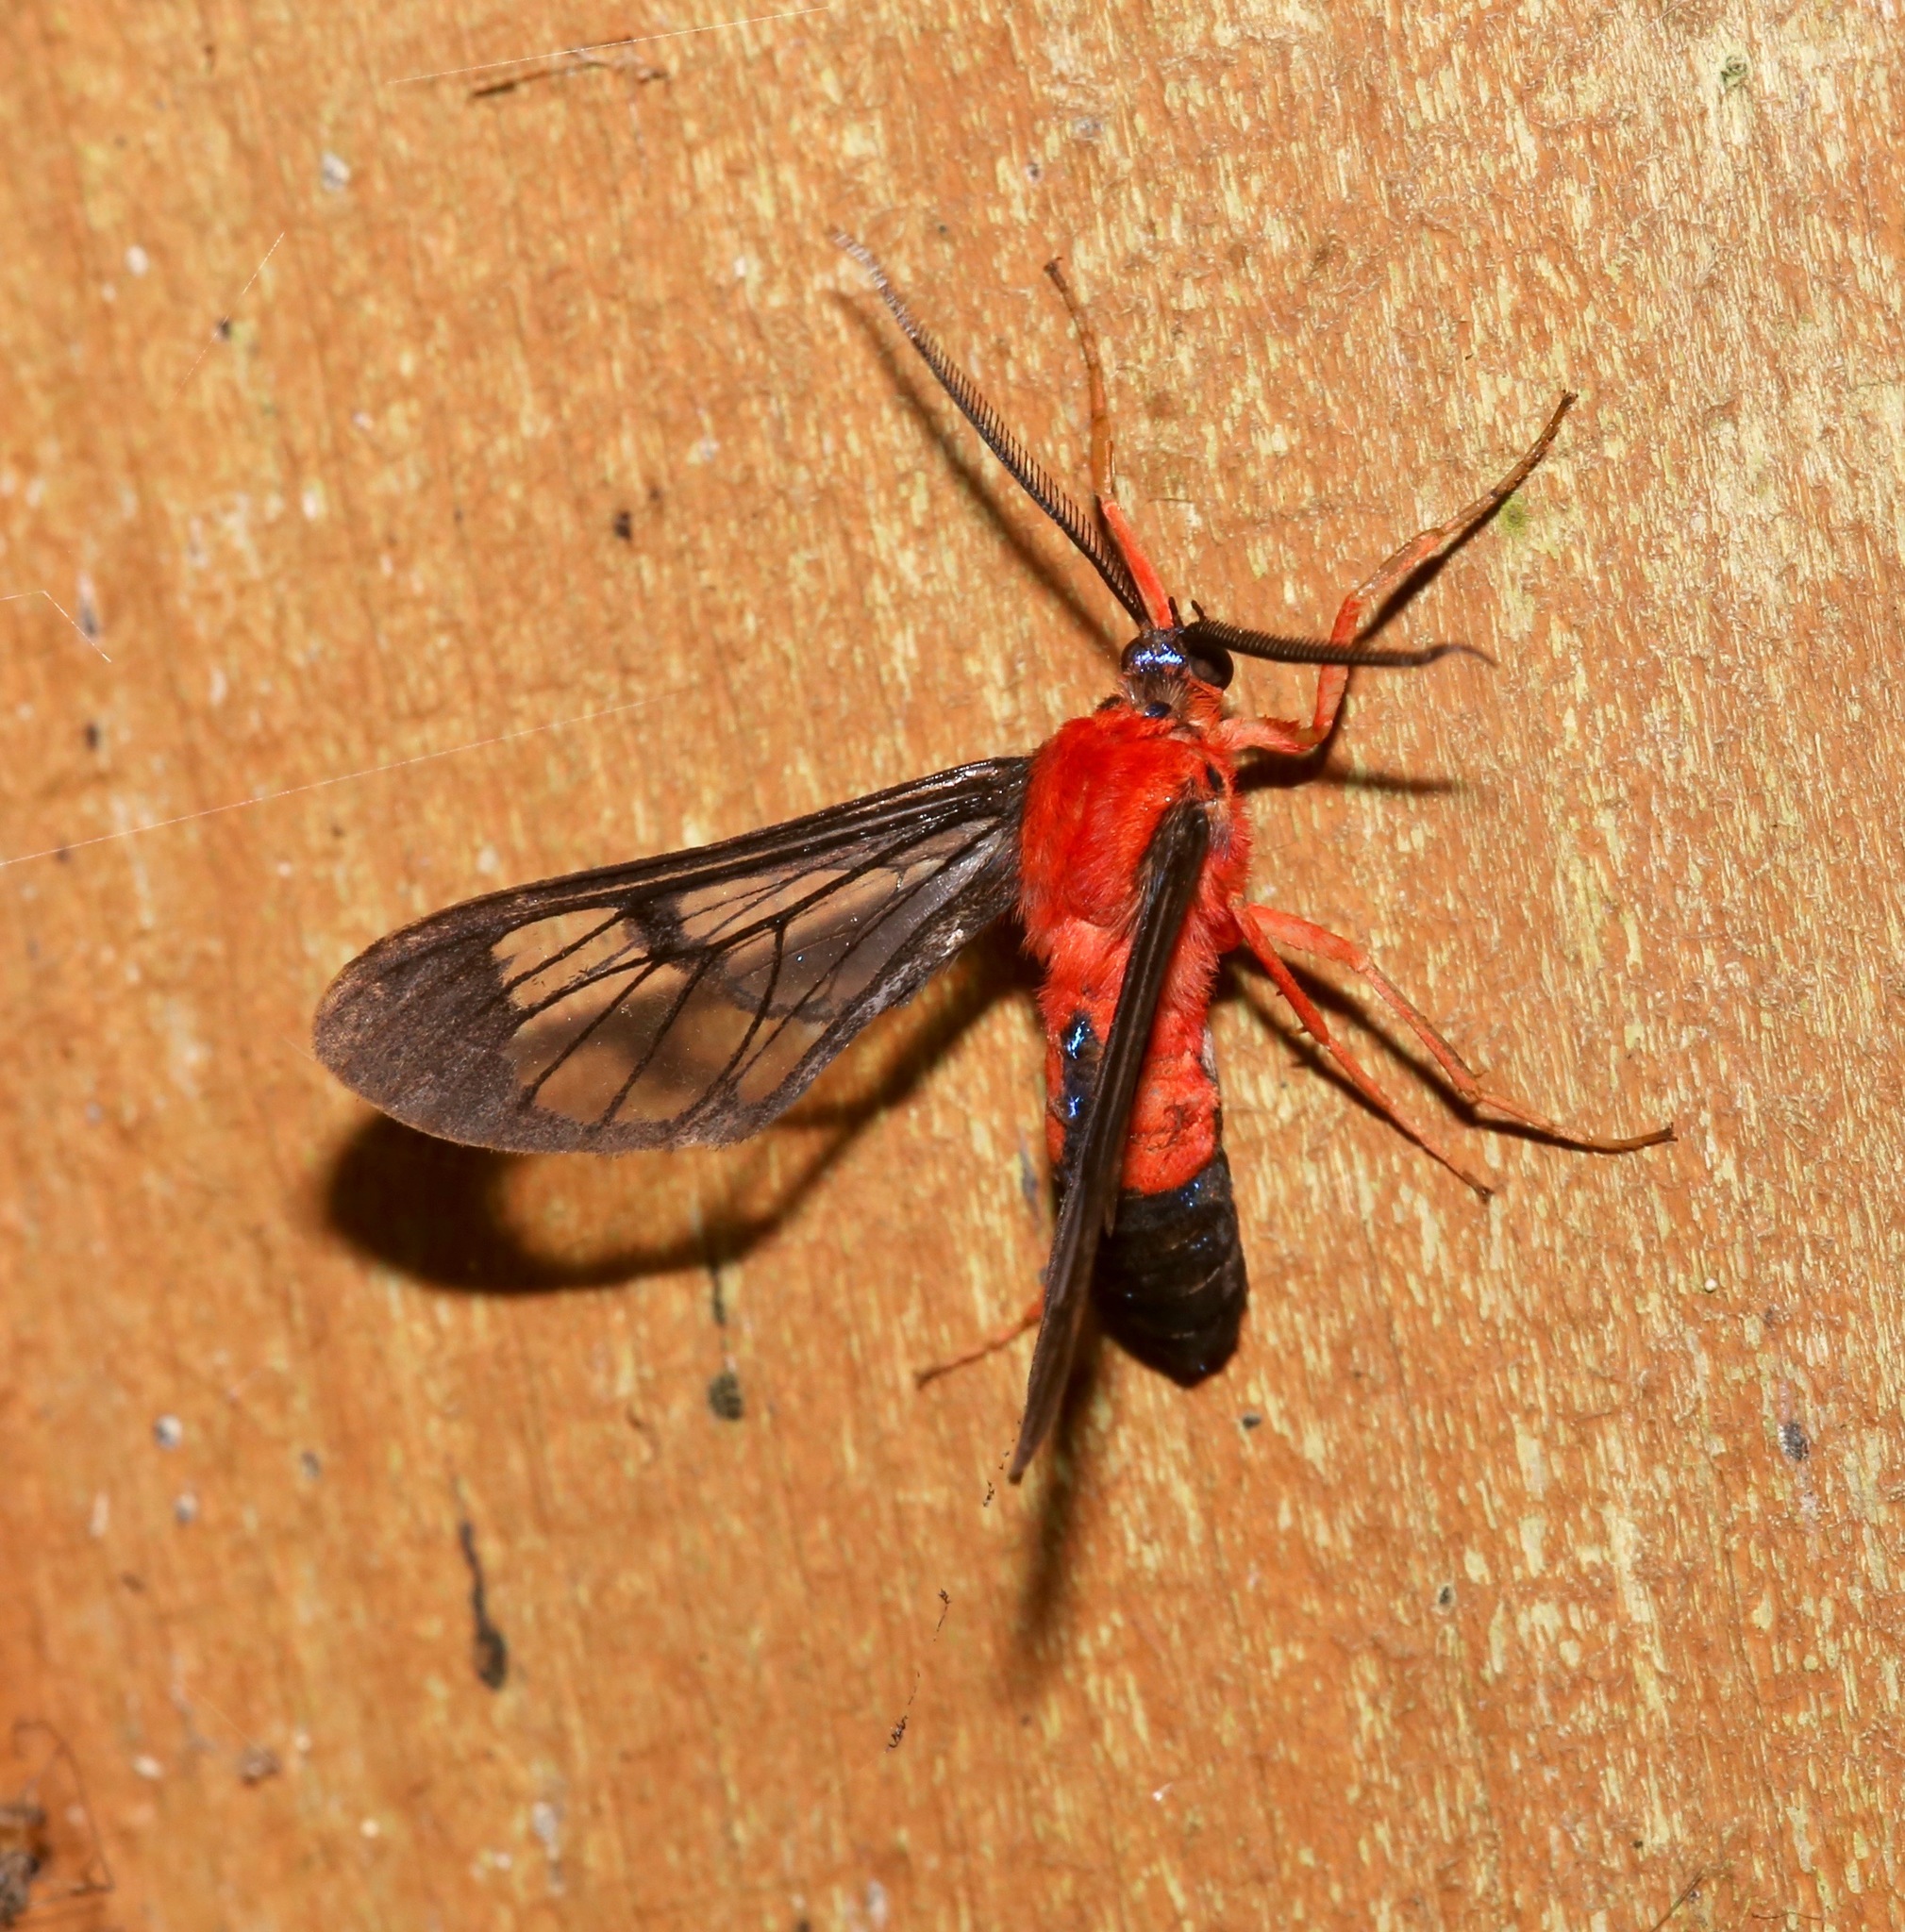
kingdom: Animalia
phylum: Arthropoda
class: Insecta
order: Lepidoptera
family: Erebidae
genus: Cosmosoma
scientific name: Cosmosoma myrodora
